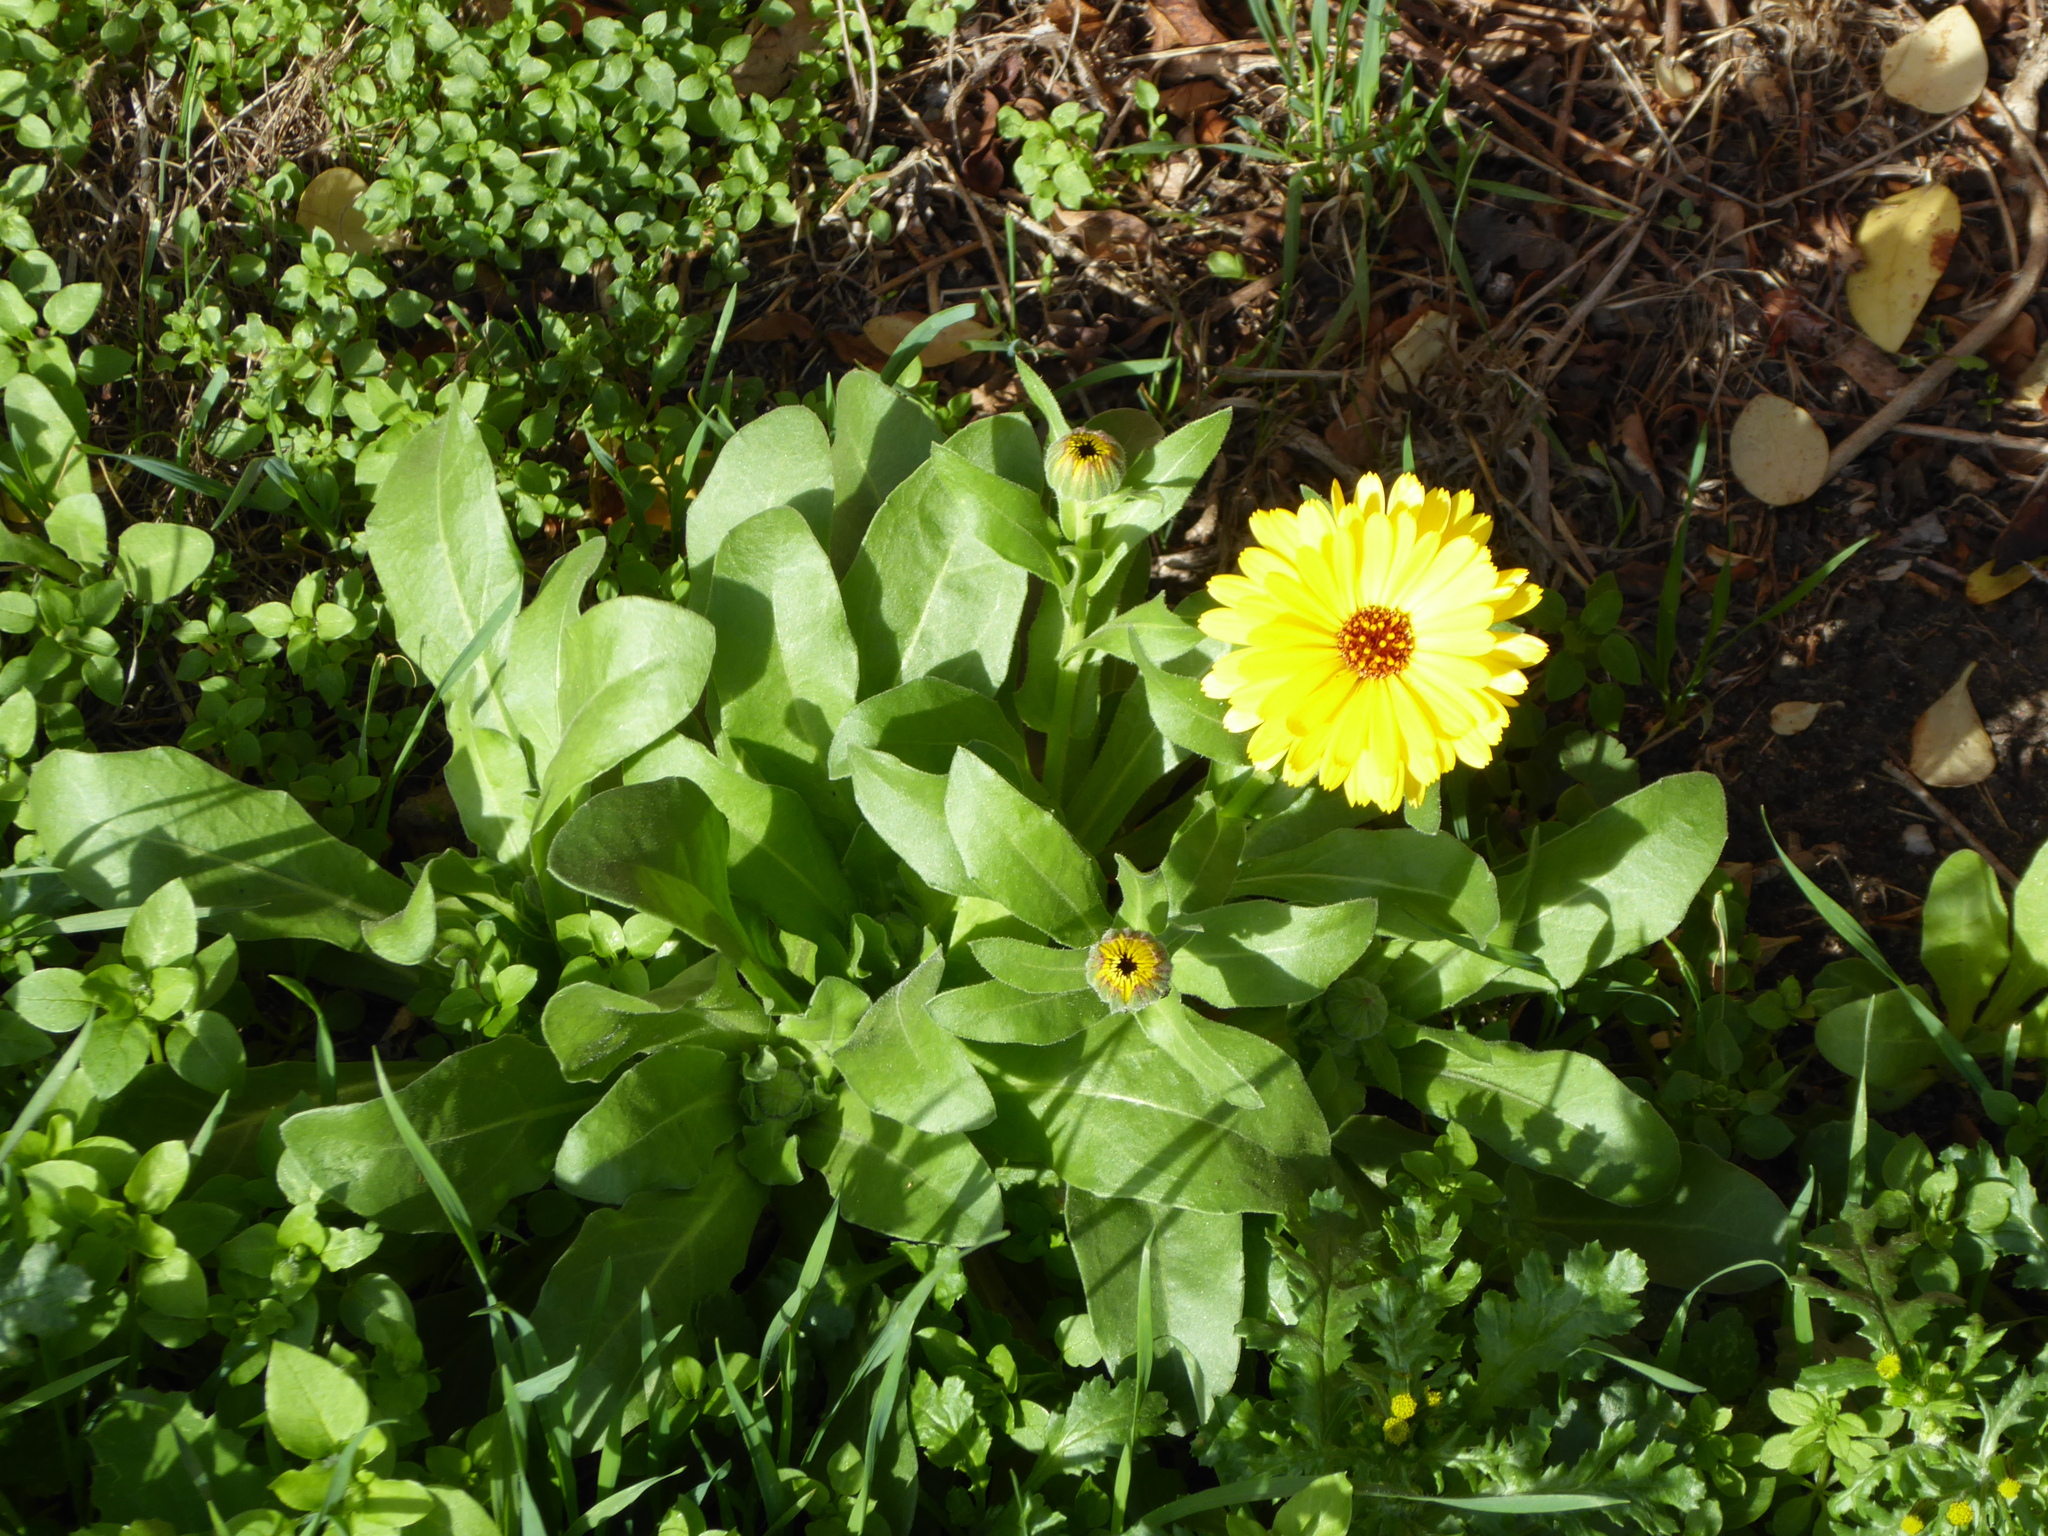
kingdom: Plantae
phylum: Tracheophyta
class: Magnoliopsida
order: Asterales
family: Asteraceae
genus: Calendula
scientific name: Calendula officinalis
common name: Pot marigold
